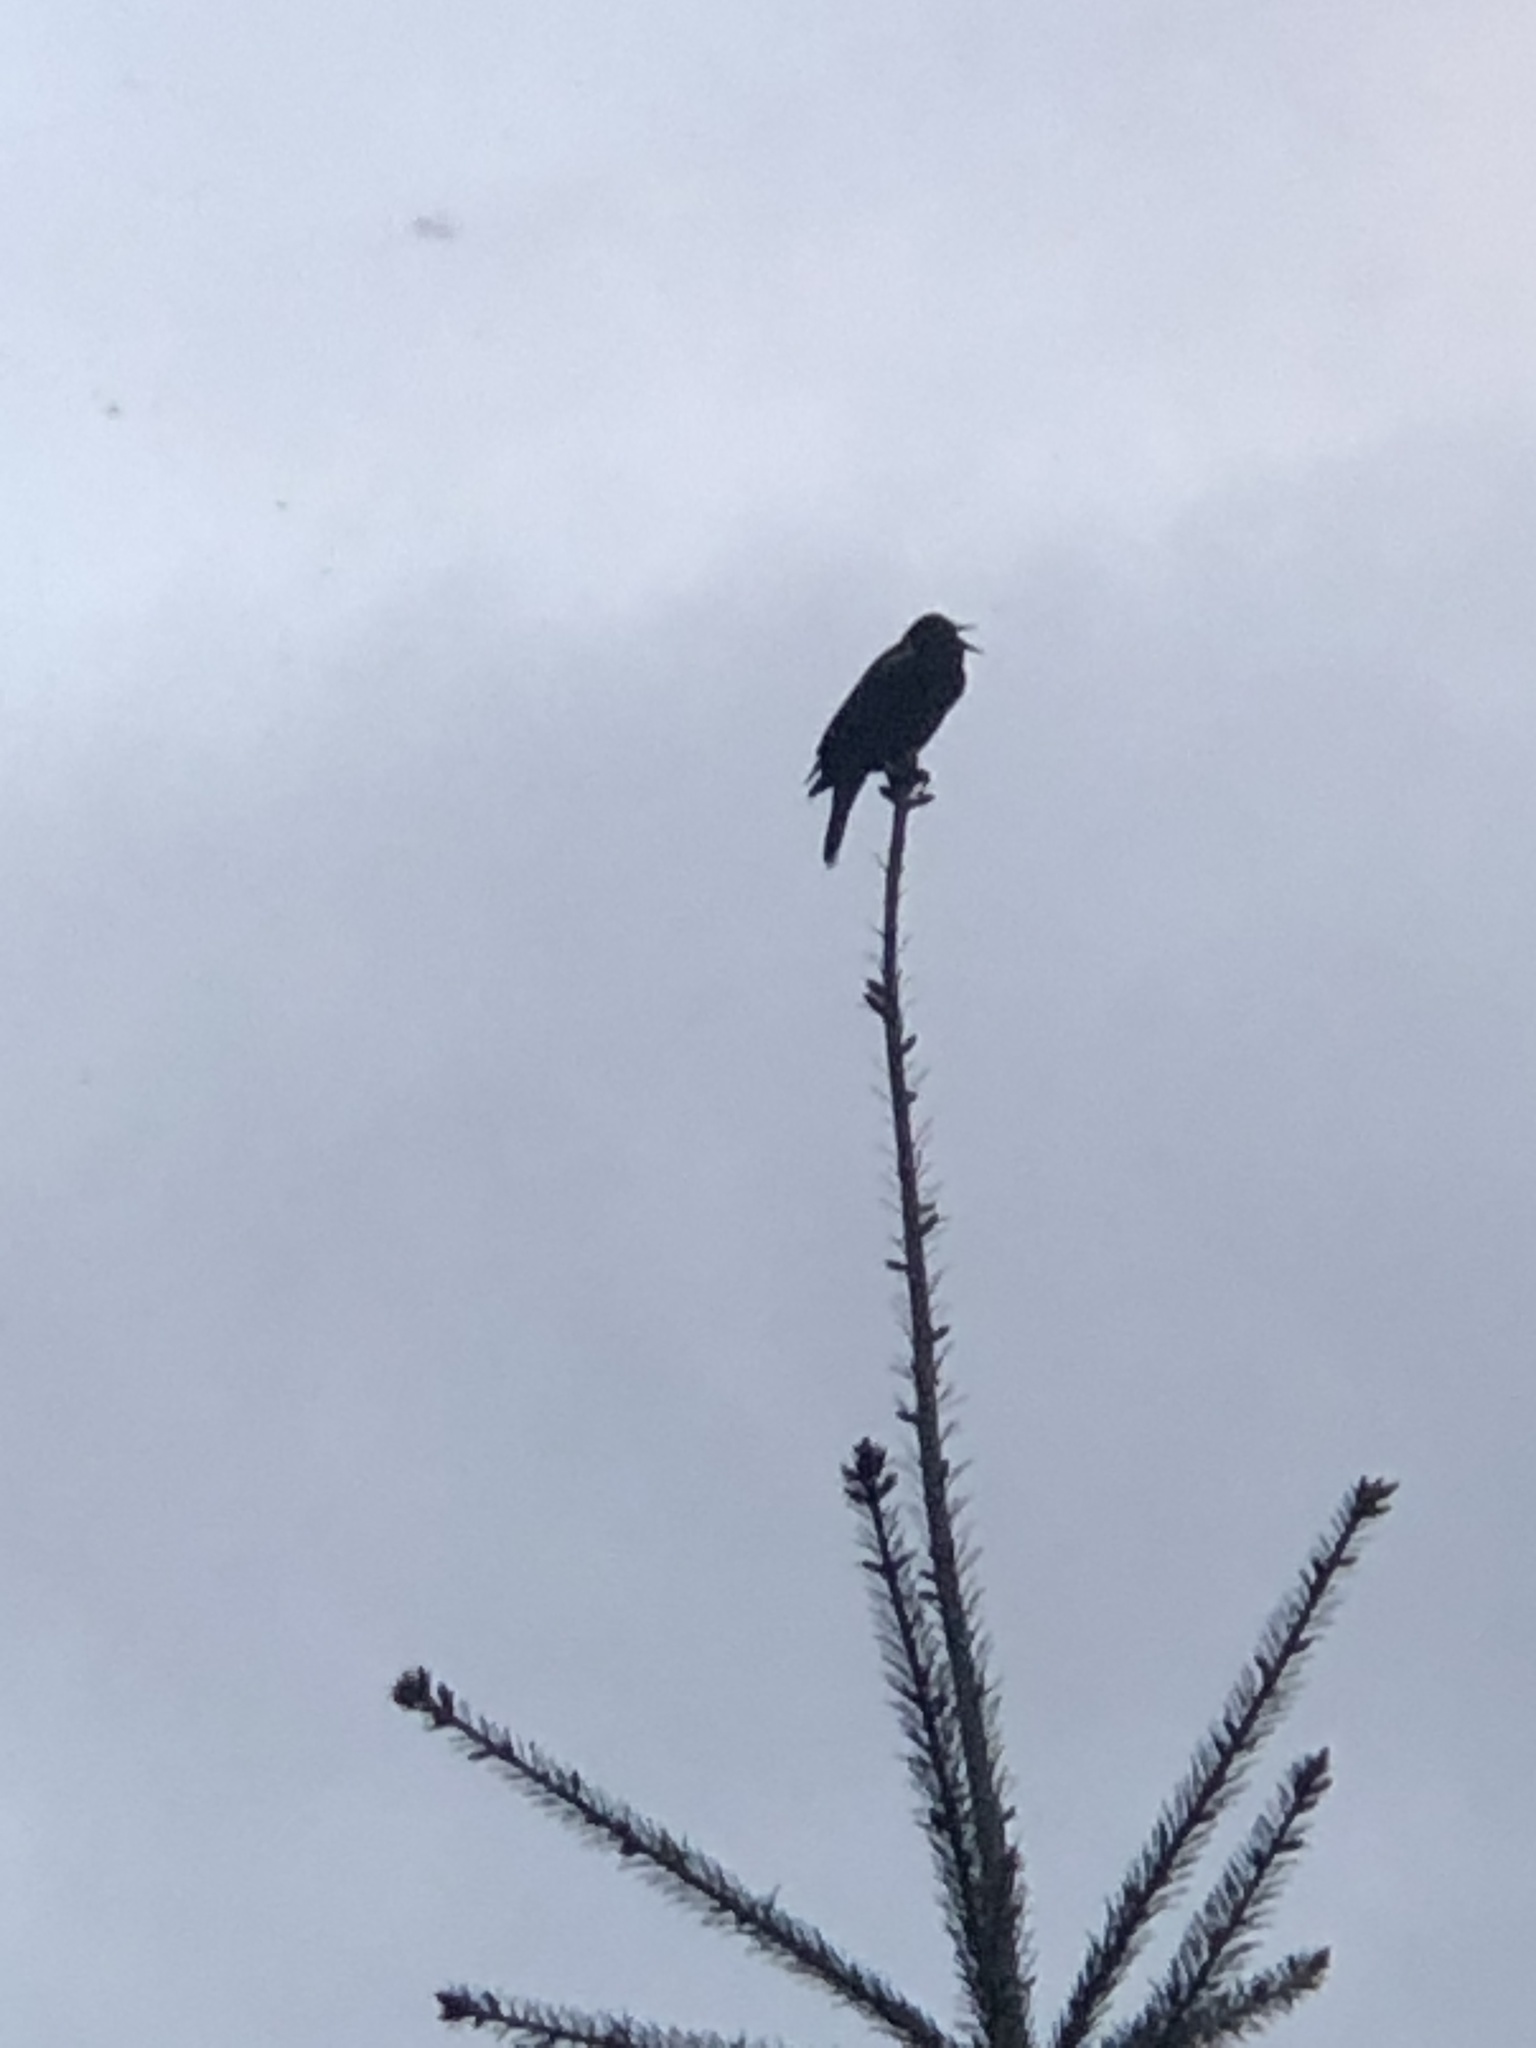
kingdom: Animalia
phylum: Chordata
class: Aves
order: Passeriformes
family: Corvidae
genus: Corvus
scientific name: Corvus brachyrhynchos
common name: American crow
